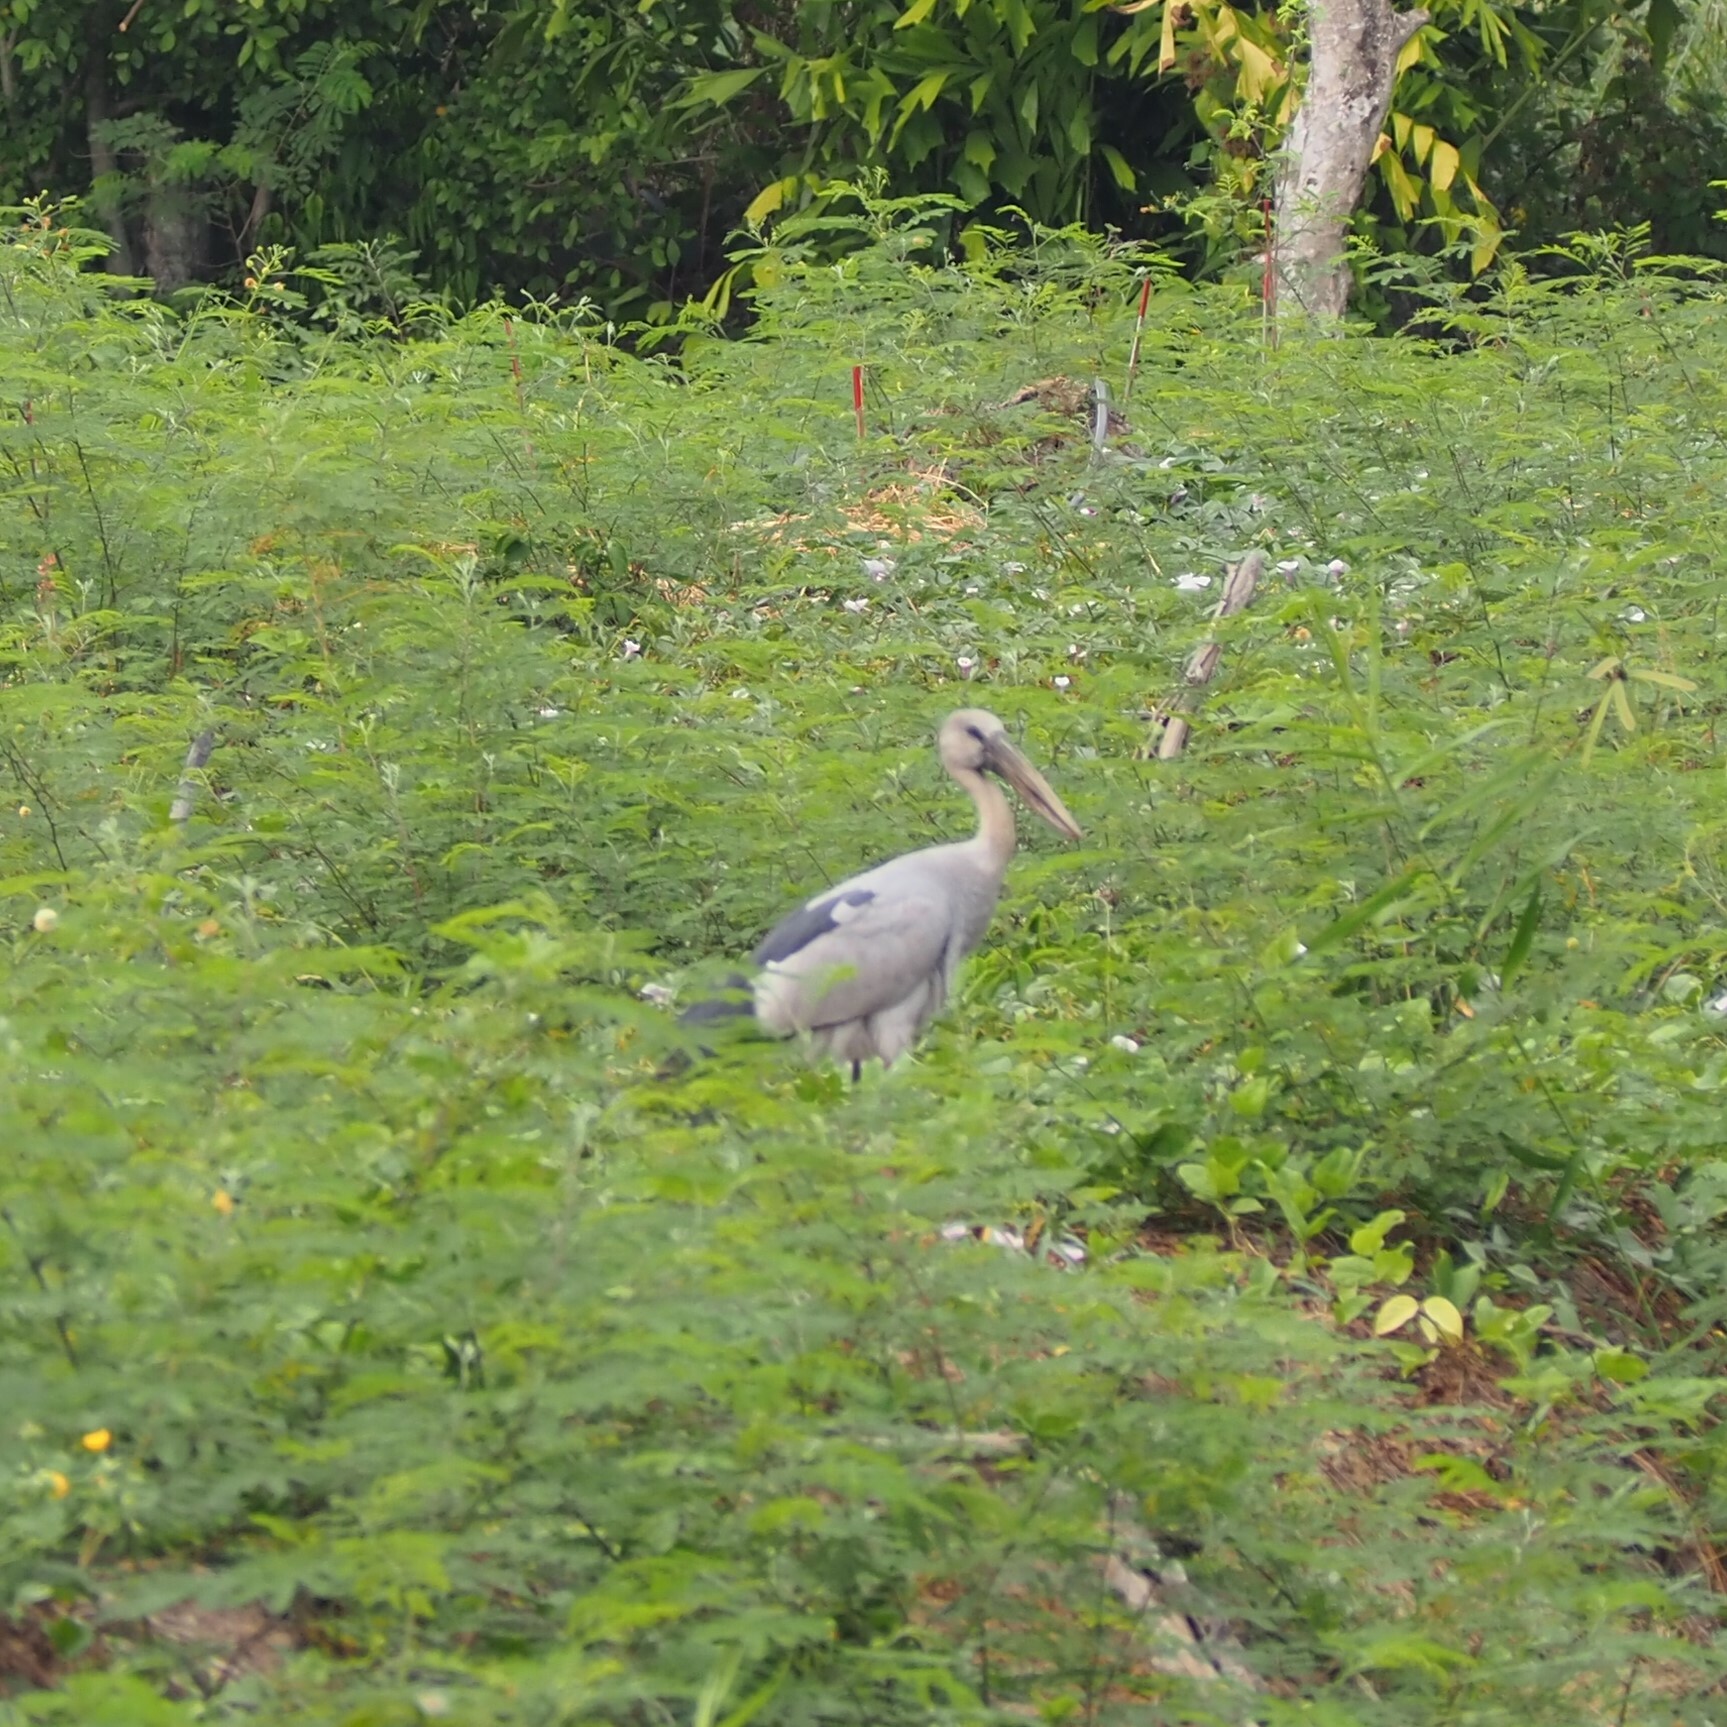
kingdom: Animalia
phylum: Chordata
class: Aves
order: Ciconiiformes
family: Ciconiidae
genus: Anastomus
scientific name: Anastomus oscitans
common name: Asian openbill
